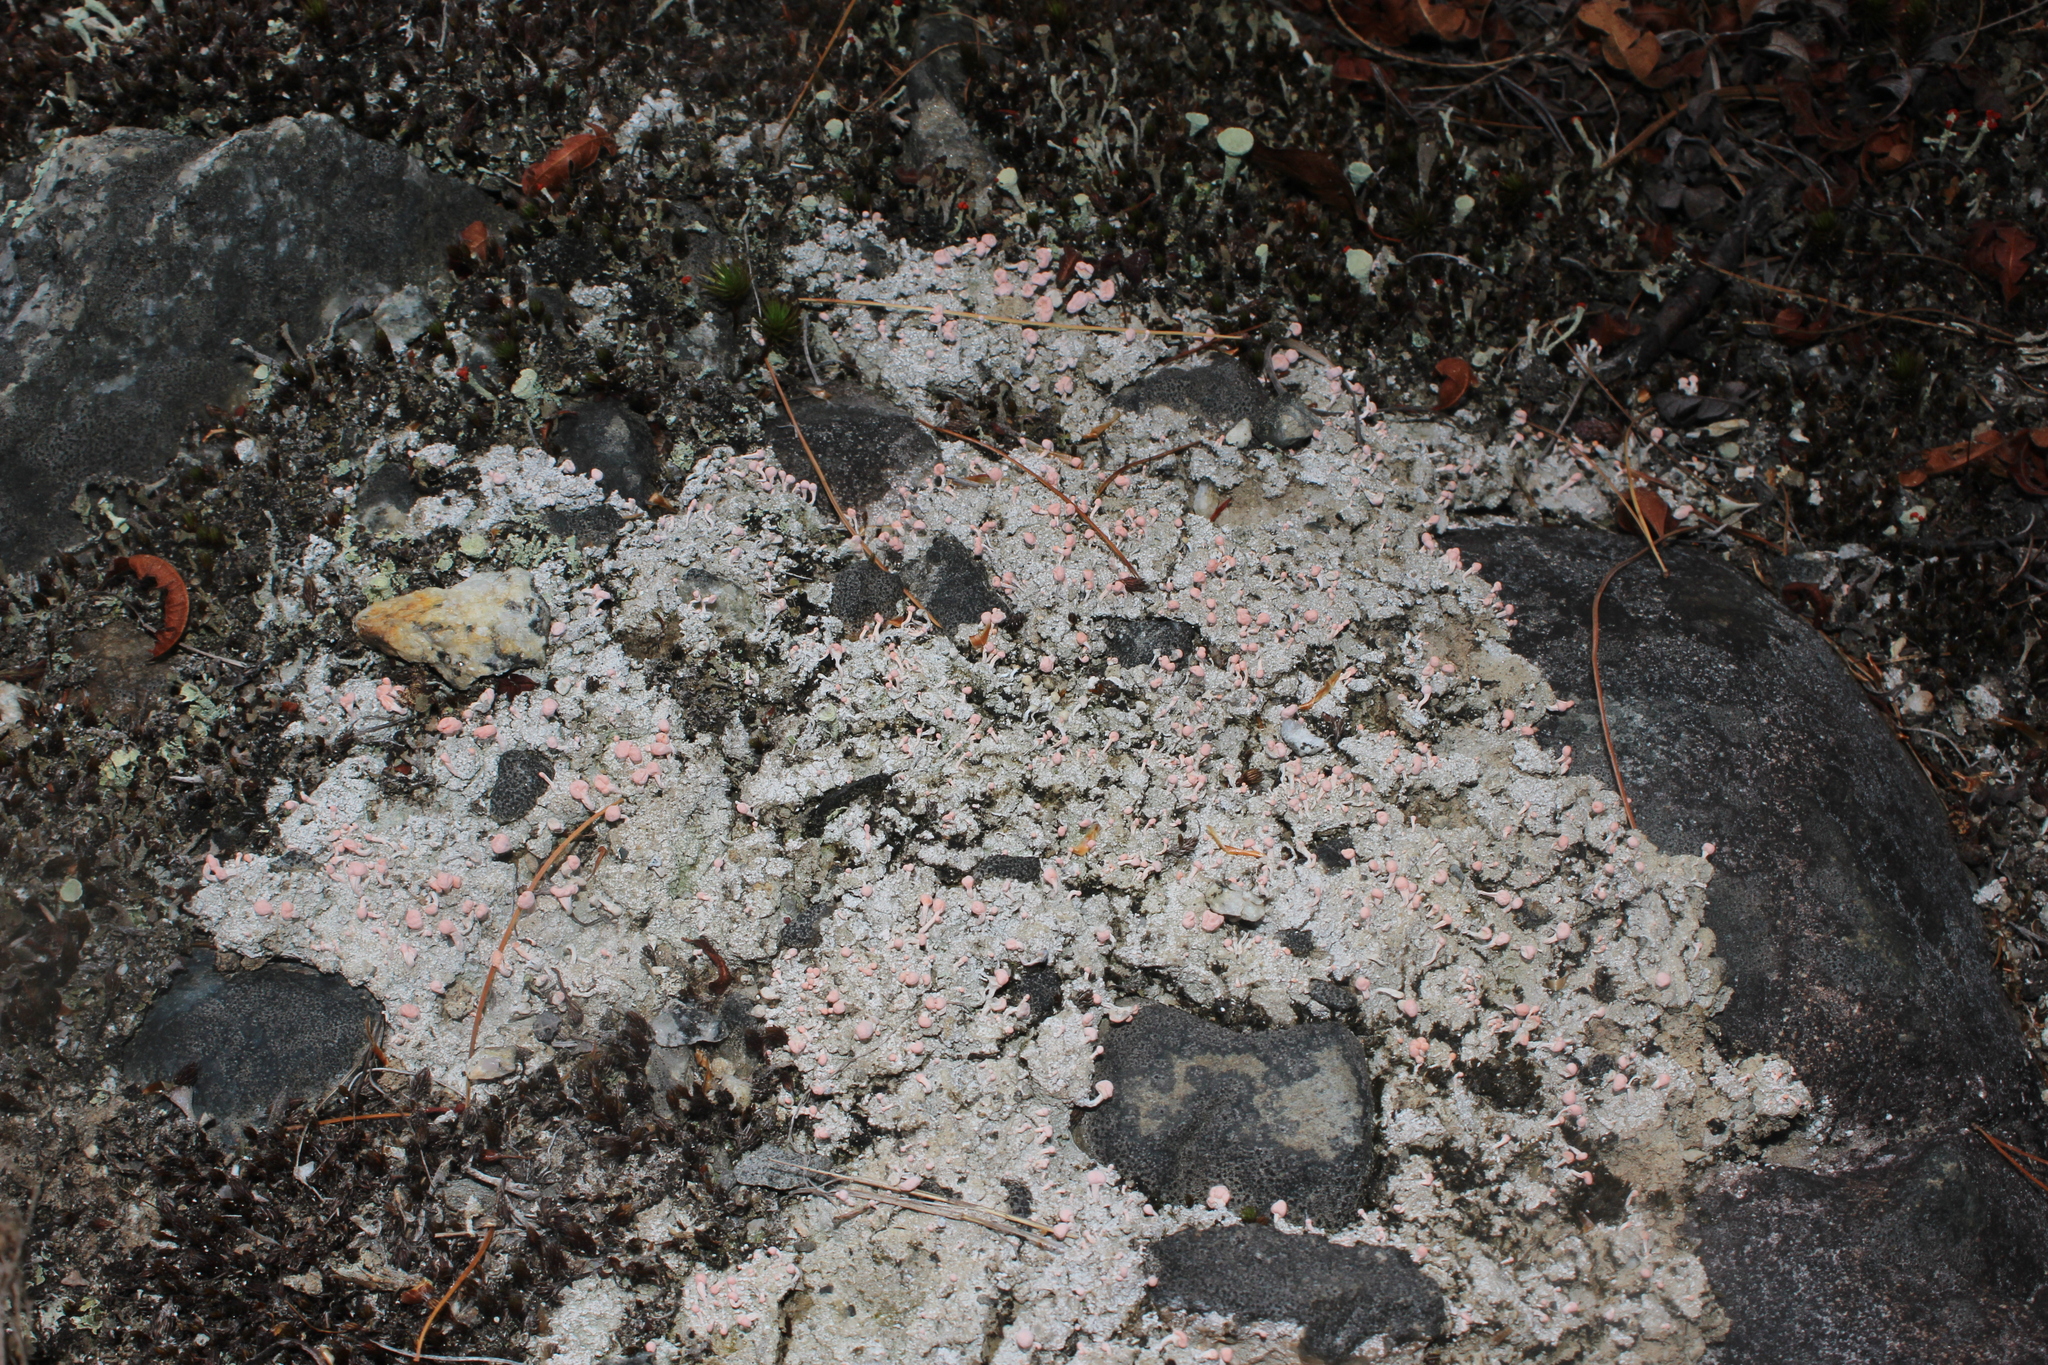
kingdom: Fungi
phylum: Ascomycota
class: Lecanoromycetes
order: Pertusariales
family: Icmadophilaceae
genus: Dibaeis
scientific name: Dibaeis baeomyces
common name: Pink earth lichen
